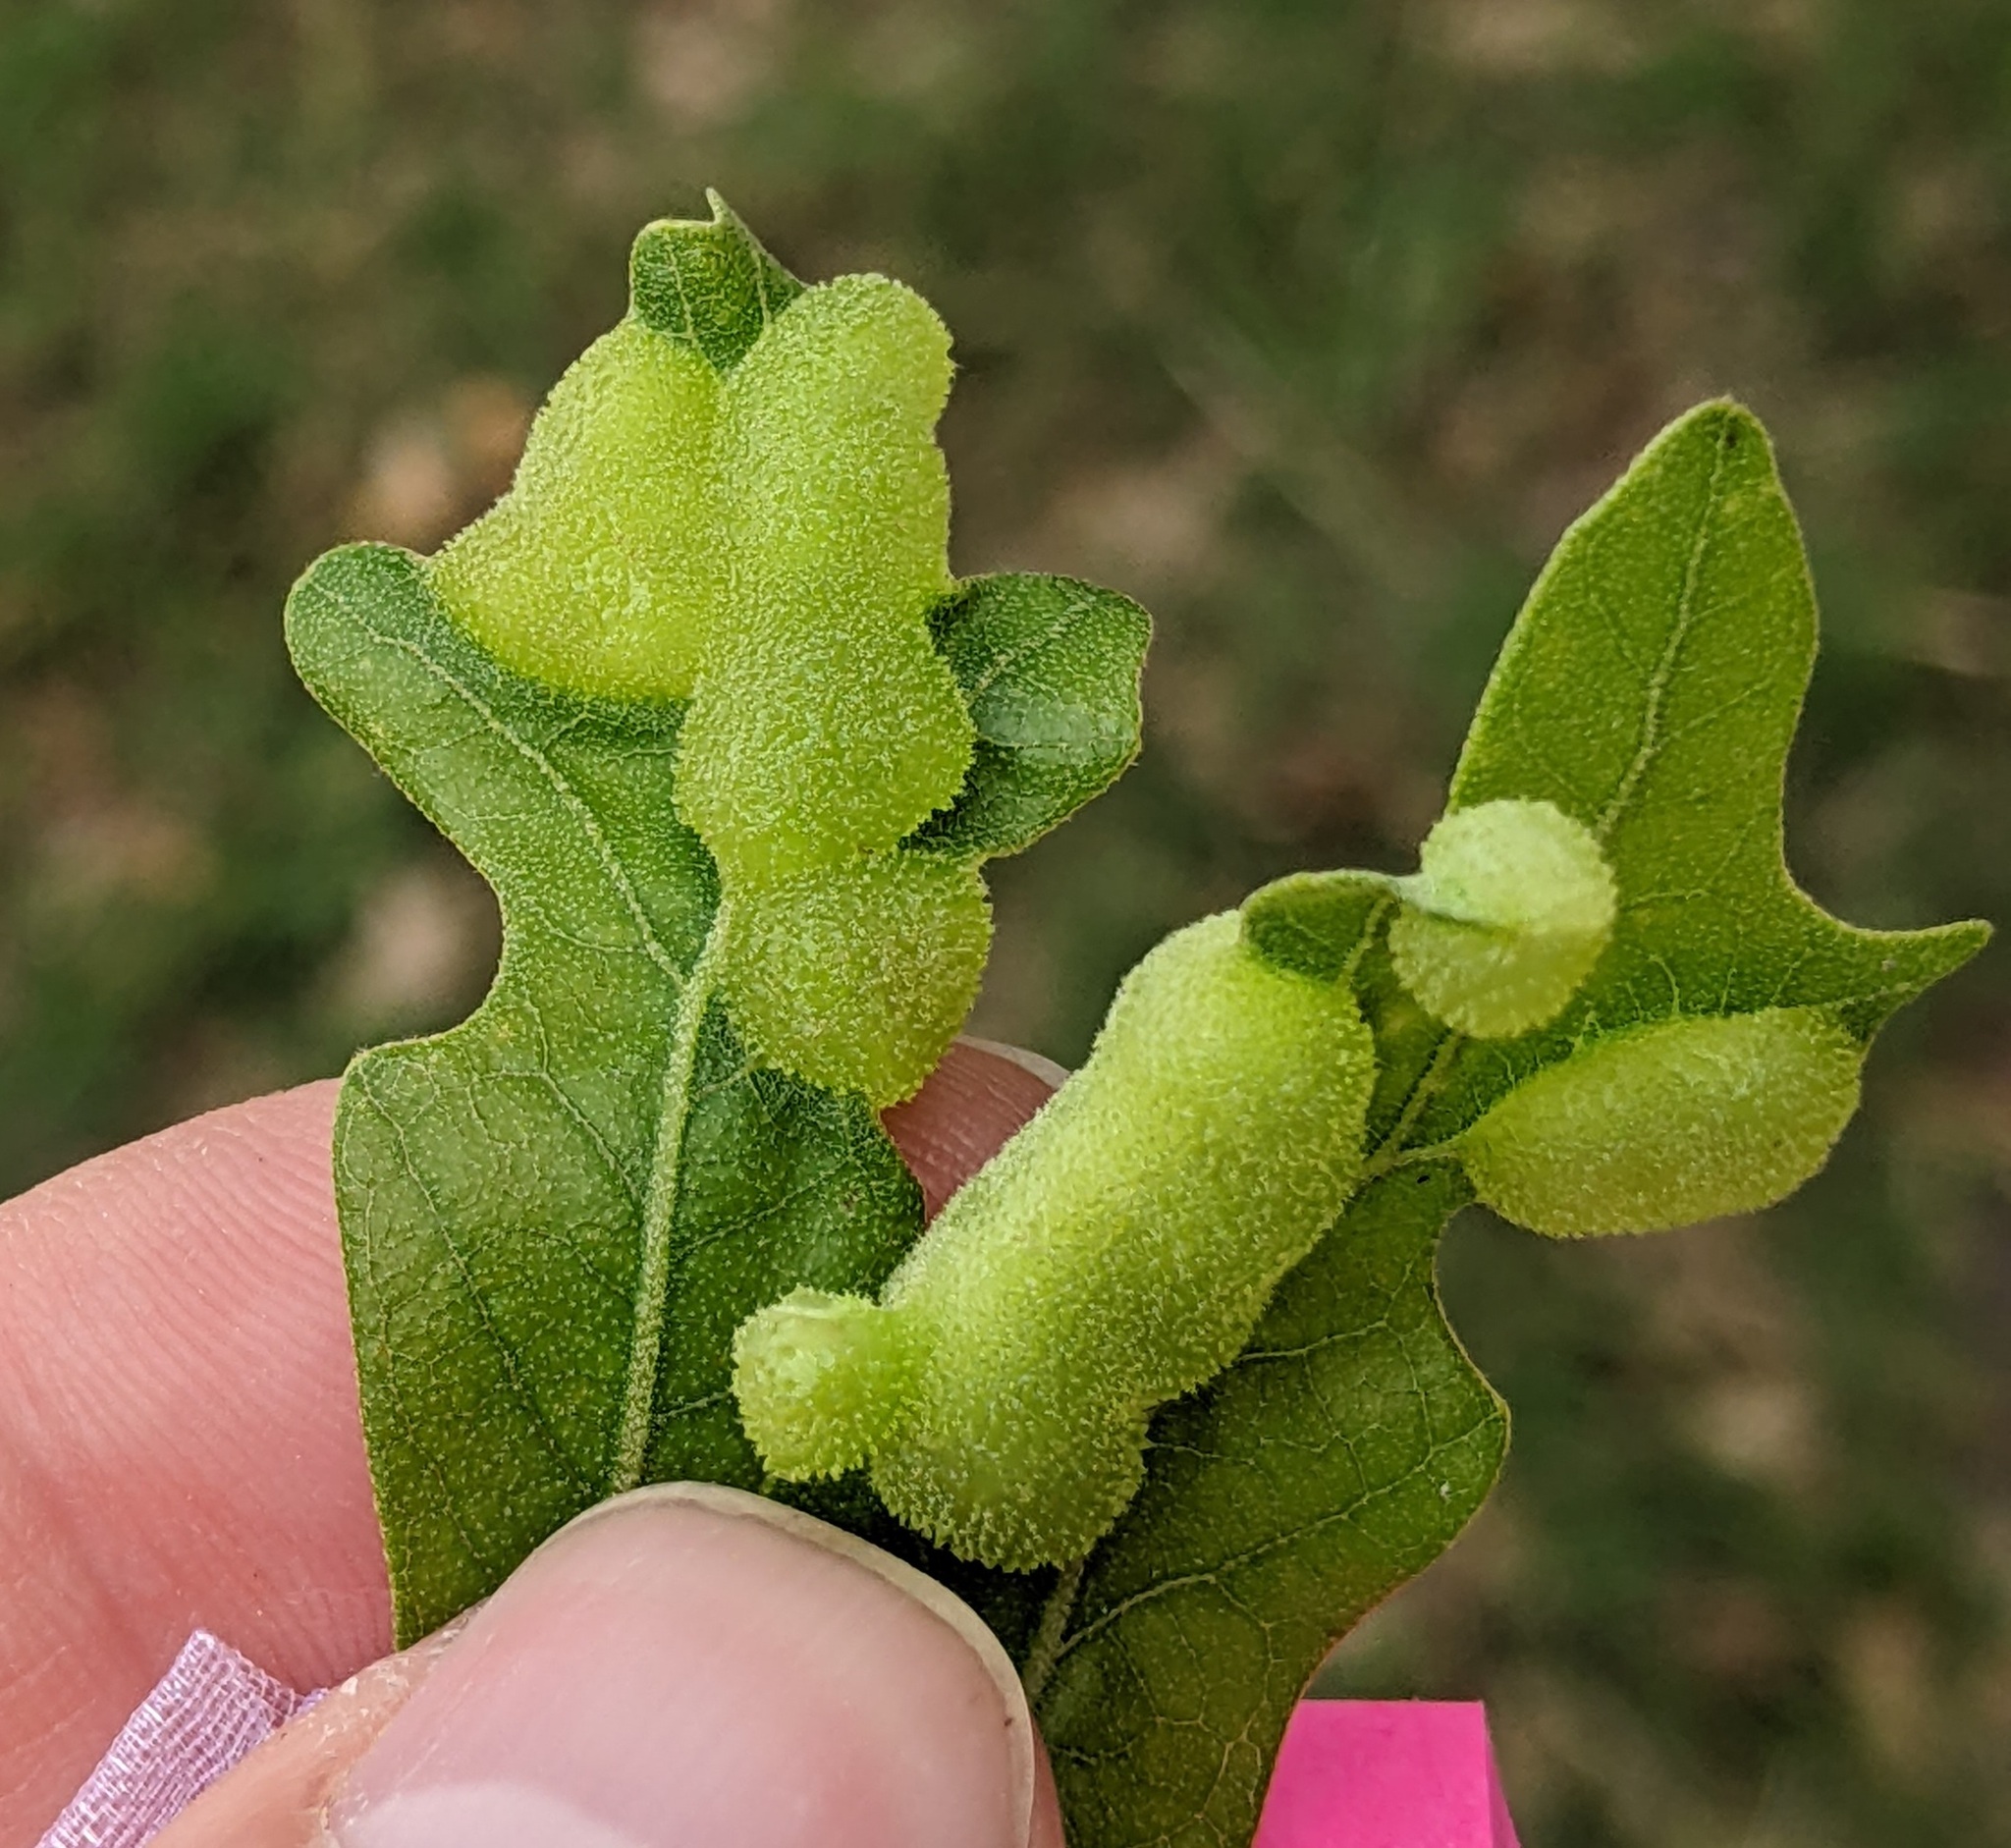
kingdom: Animalia
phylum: Arthropoda
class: Insecta
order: Hymenoptera
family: Cynipidae
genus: Neuroterus
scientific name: Neuroterus quercusirregularis
